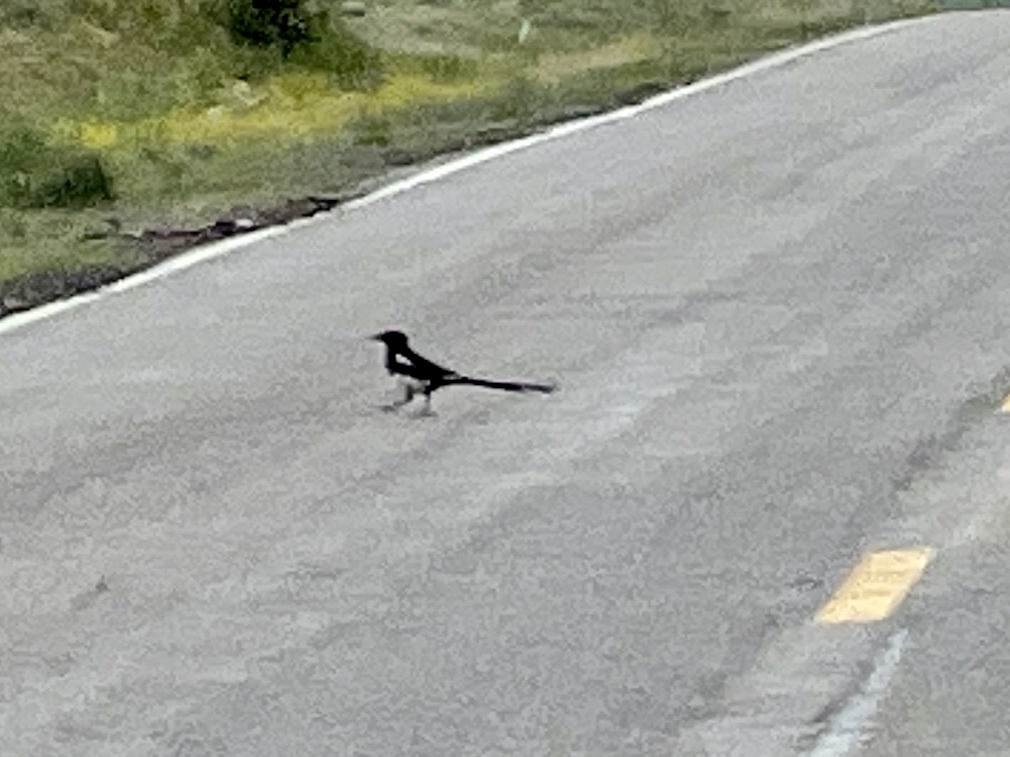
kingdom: Animalia
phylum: Chordata
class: Aves
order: Passeriformes
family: Corvidae
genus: Pica
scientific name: Pica hudsonia
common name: Black-billed magpie
